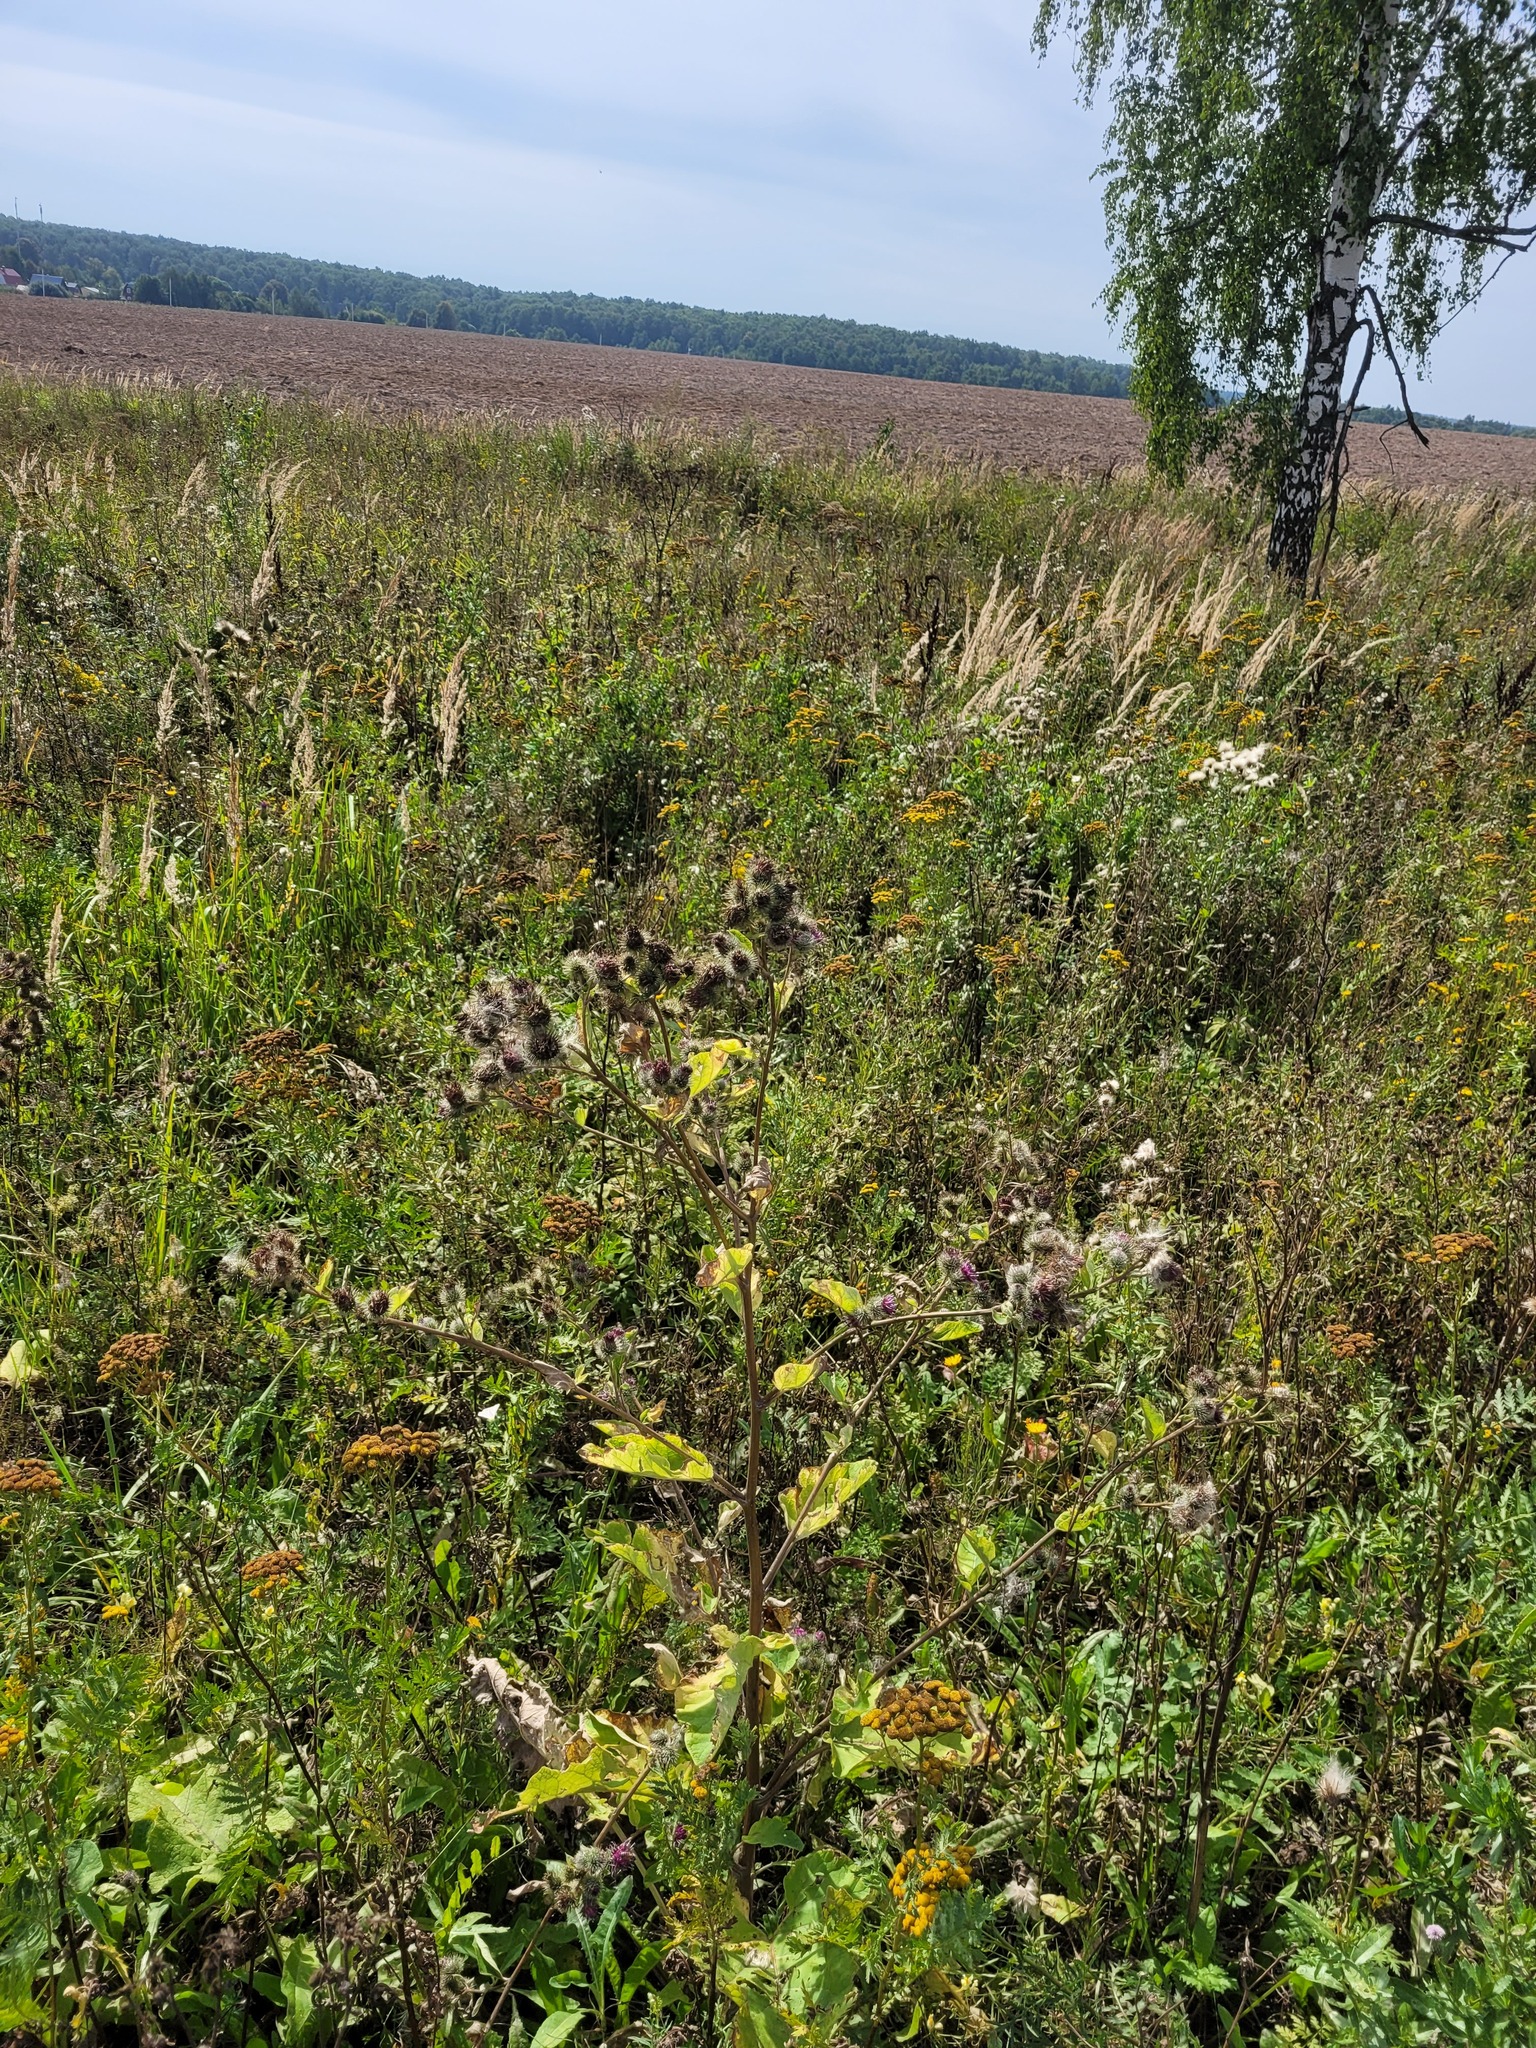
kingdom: Plantae
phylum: Tracheophyta
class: Magnoliopsida
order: Asterales
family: Asteraceae
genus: Arctium
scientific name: Arctium tomentosum
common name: Woolly burdock
